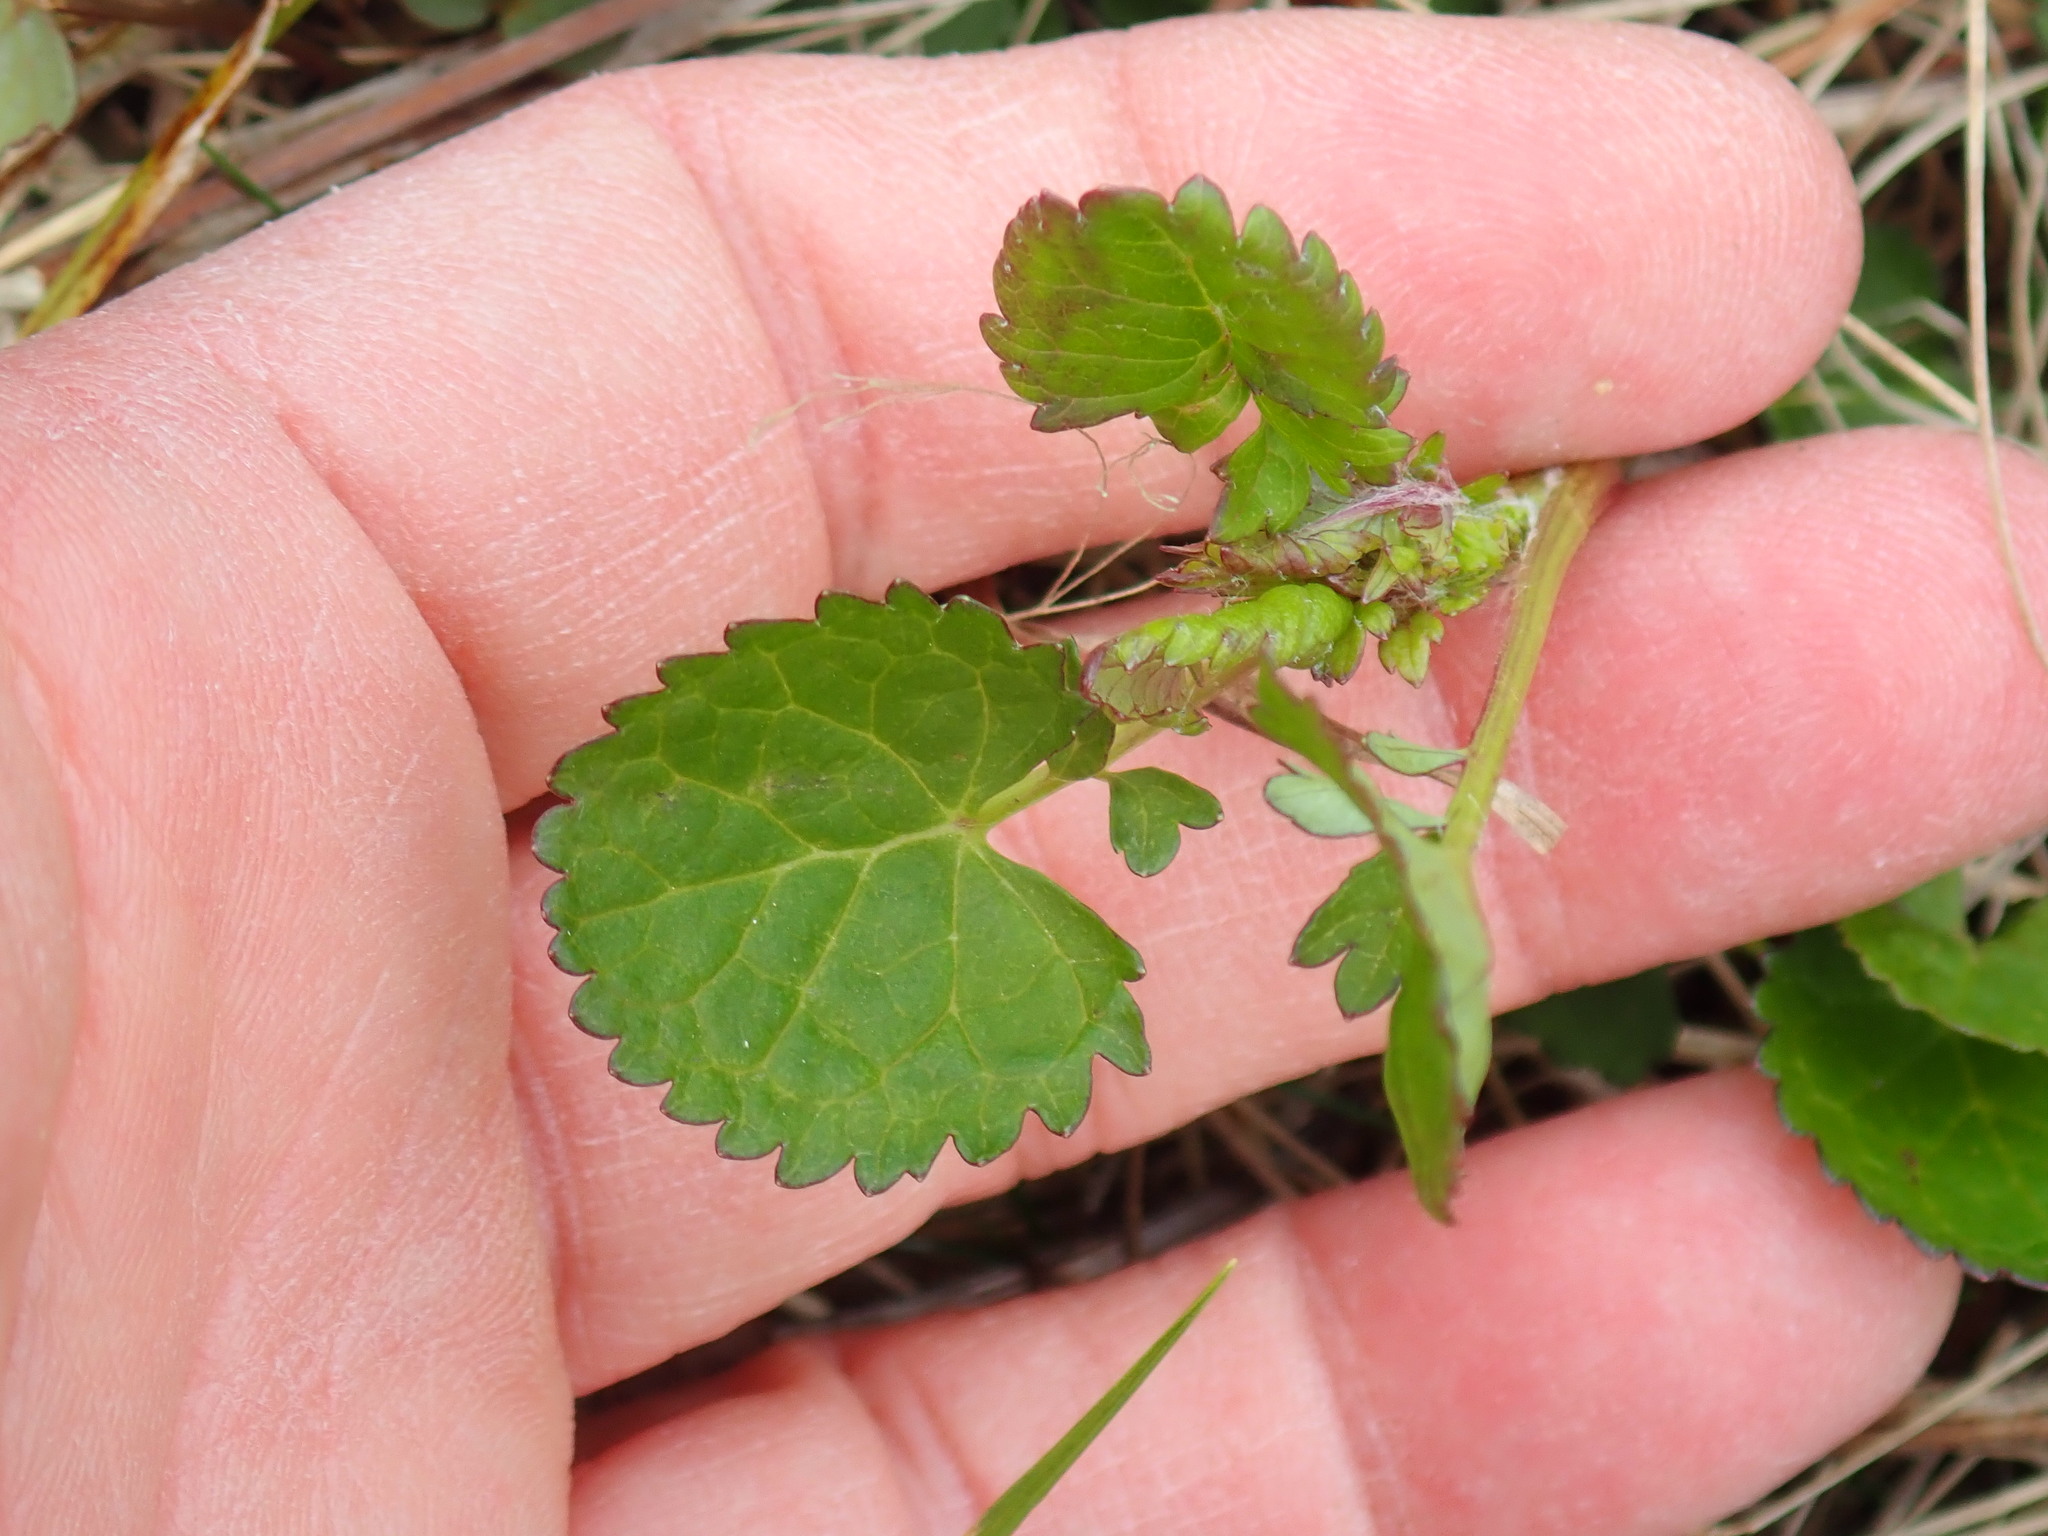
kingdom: Plantae
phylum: Tracheophyta
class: Magnoliopsida
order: Asterales
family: Asteraceae
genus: Packera
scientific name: Packera aurea
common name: Golden groundsel
